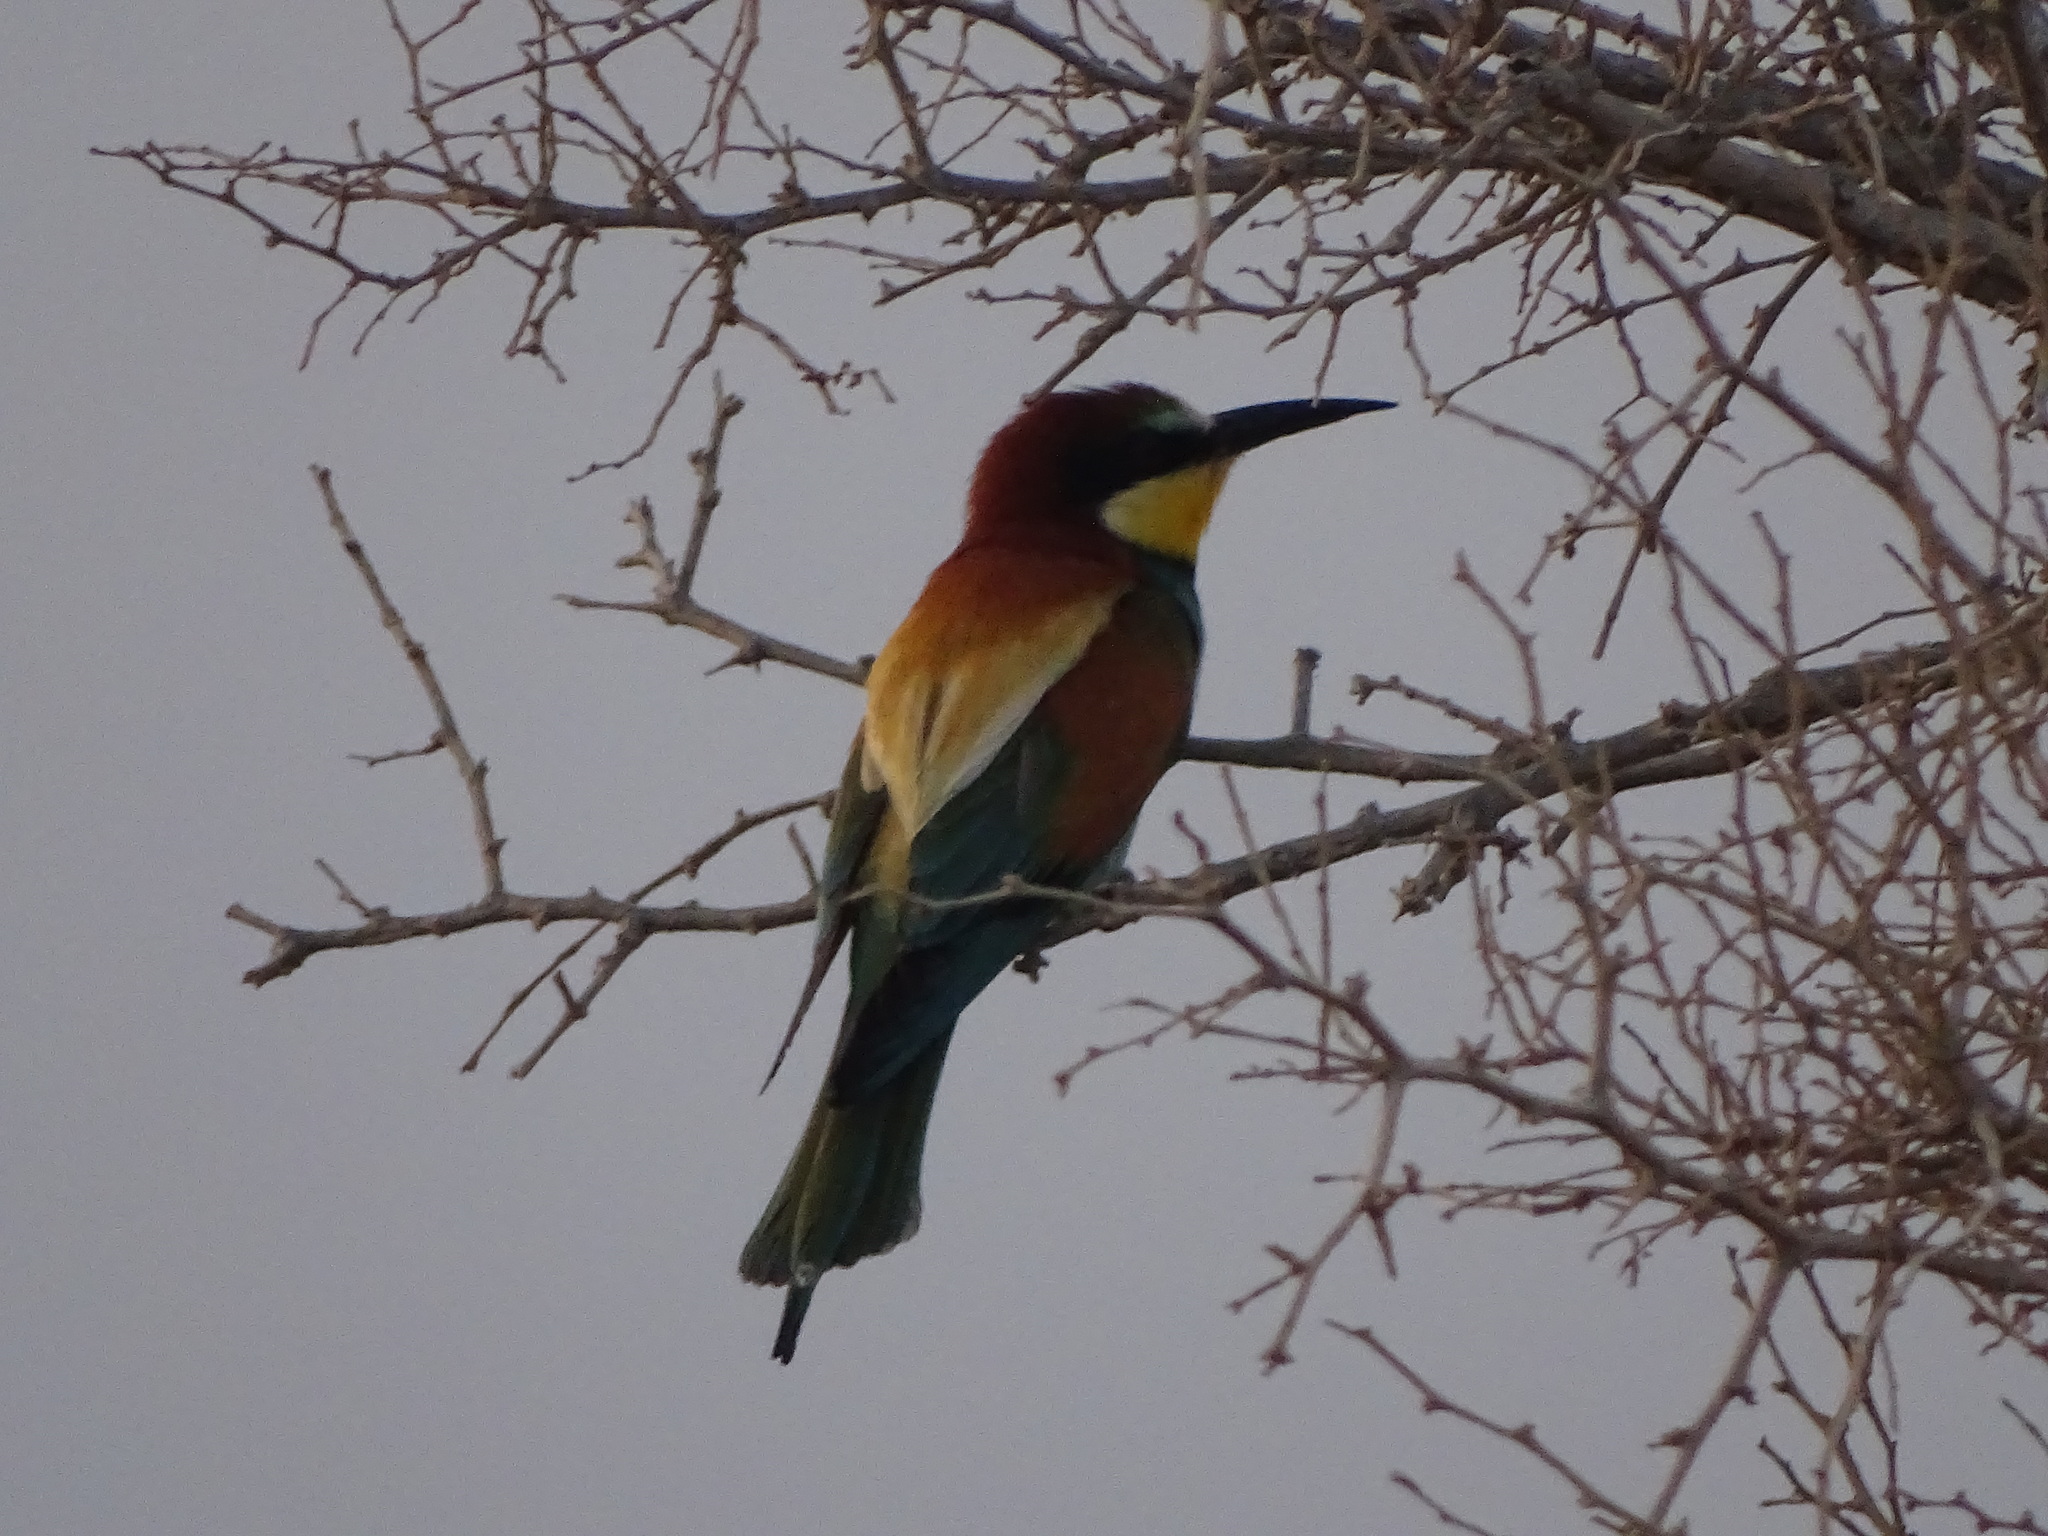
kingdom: Animalia
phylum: Chordata
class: Aves
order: Coraciiformes
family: Meropidae
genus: Merops
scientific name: Merops apiaster
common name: European bee-eater
